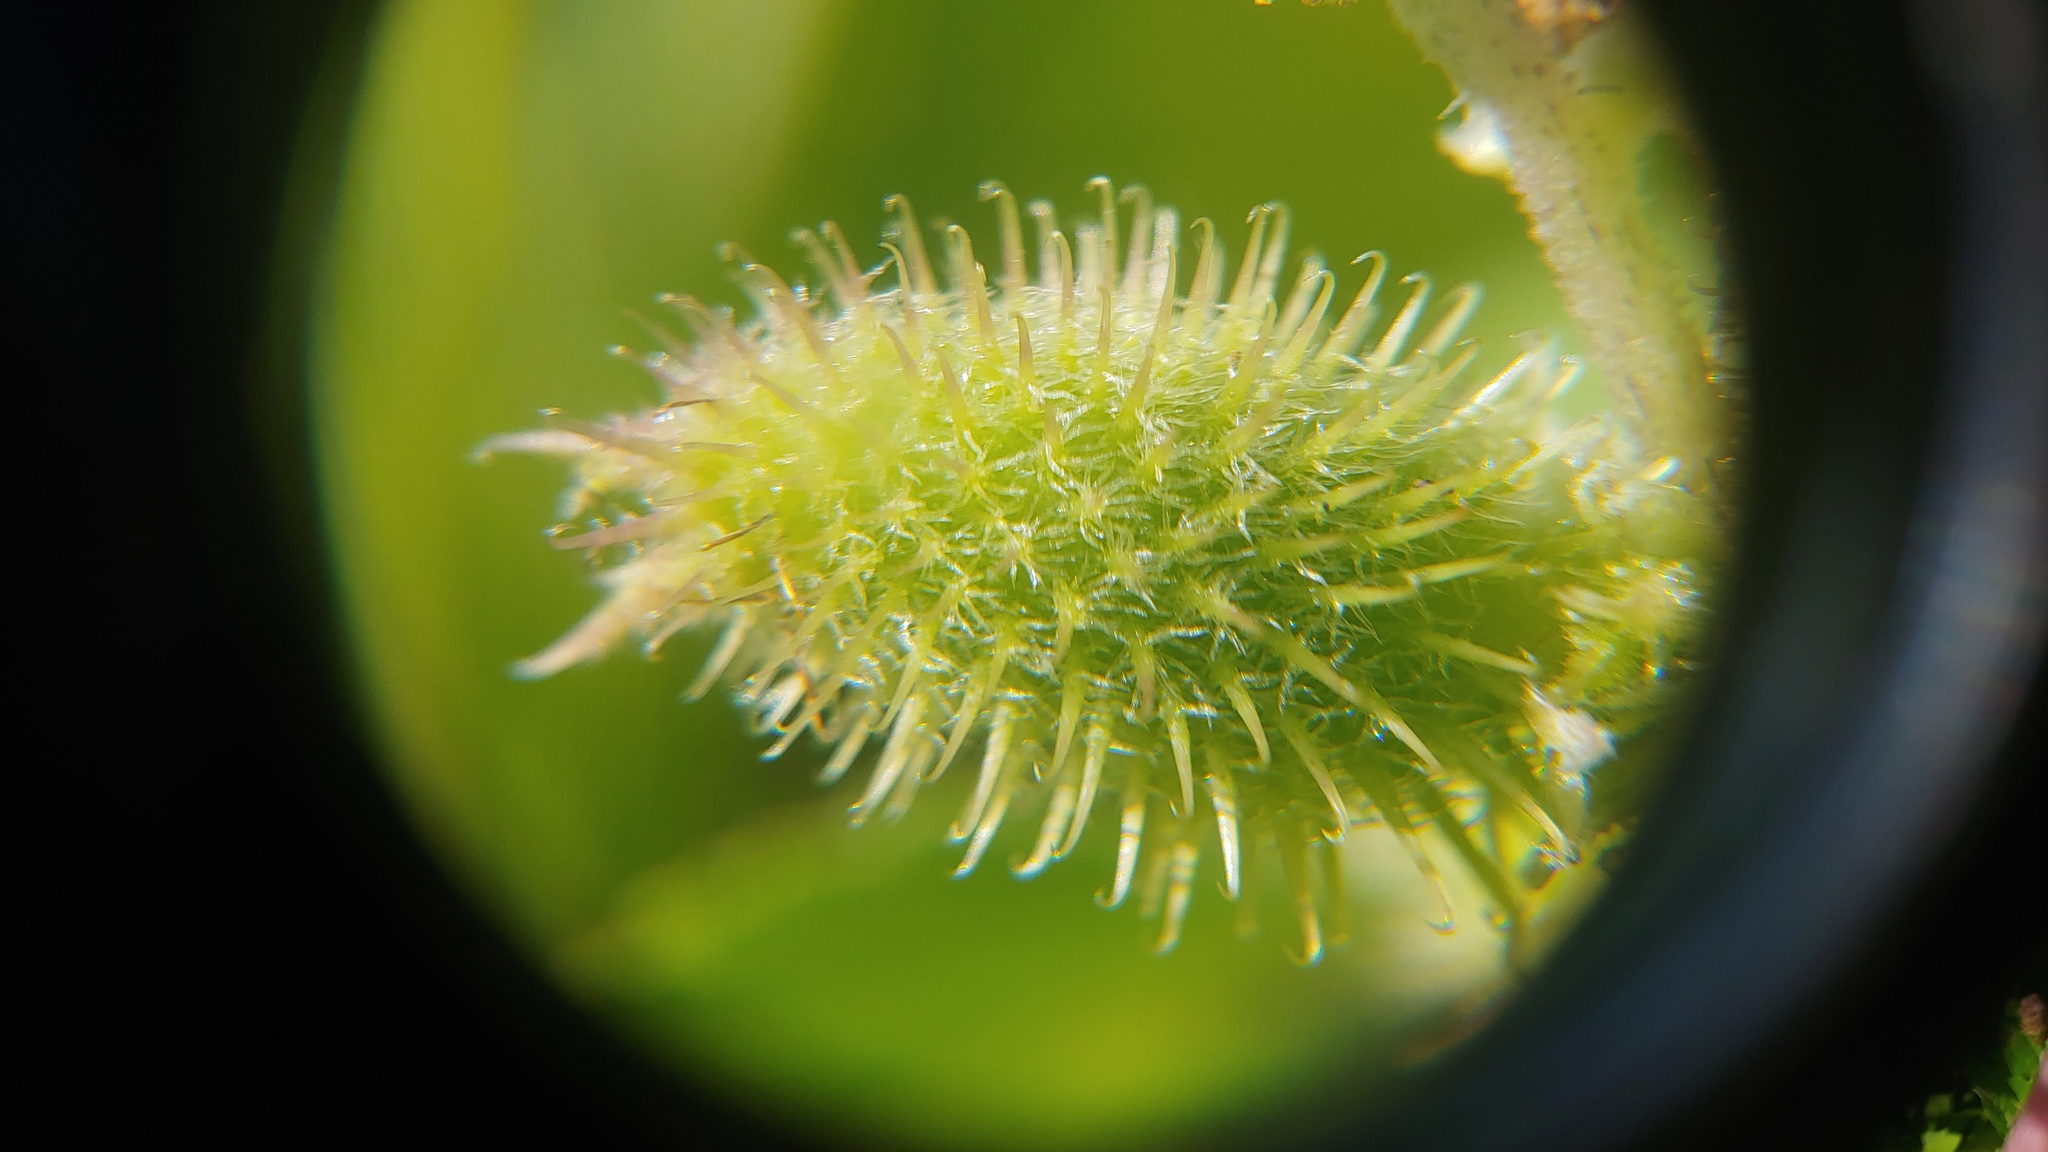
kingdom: Plantae
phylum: Tracheophyta
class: Magnoliopsida
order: Asterales
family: Asteraceae
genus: Xanthium
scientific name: Xanthium orientale
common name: Californian burr
